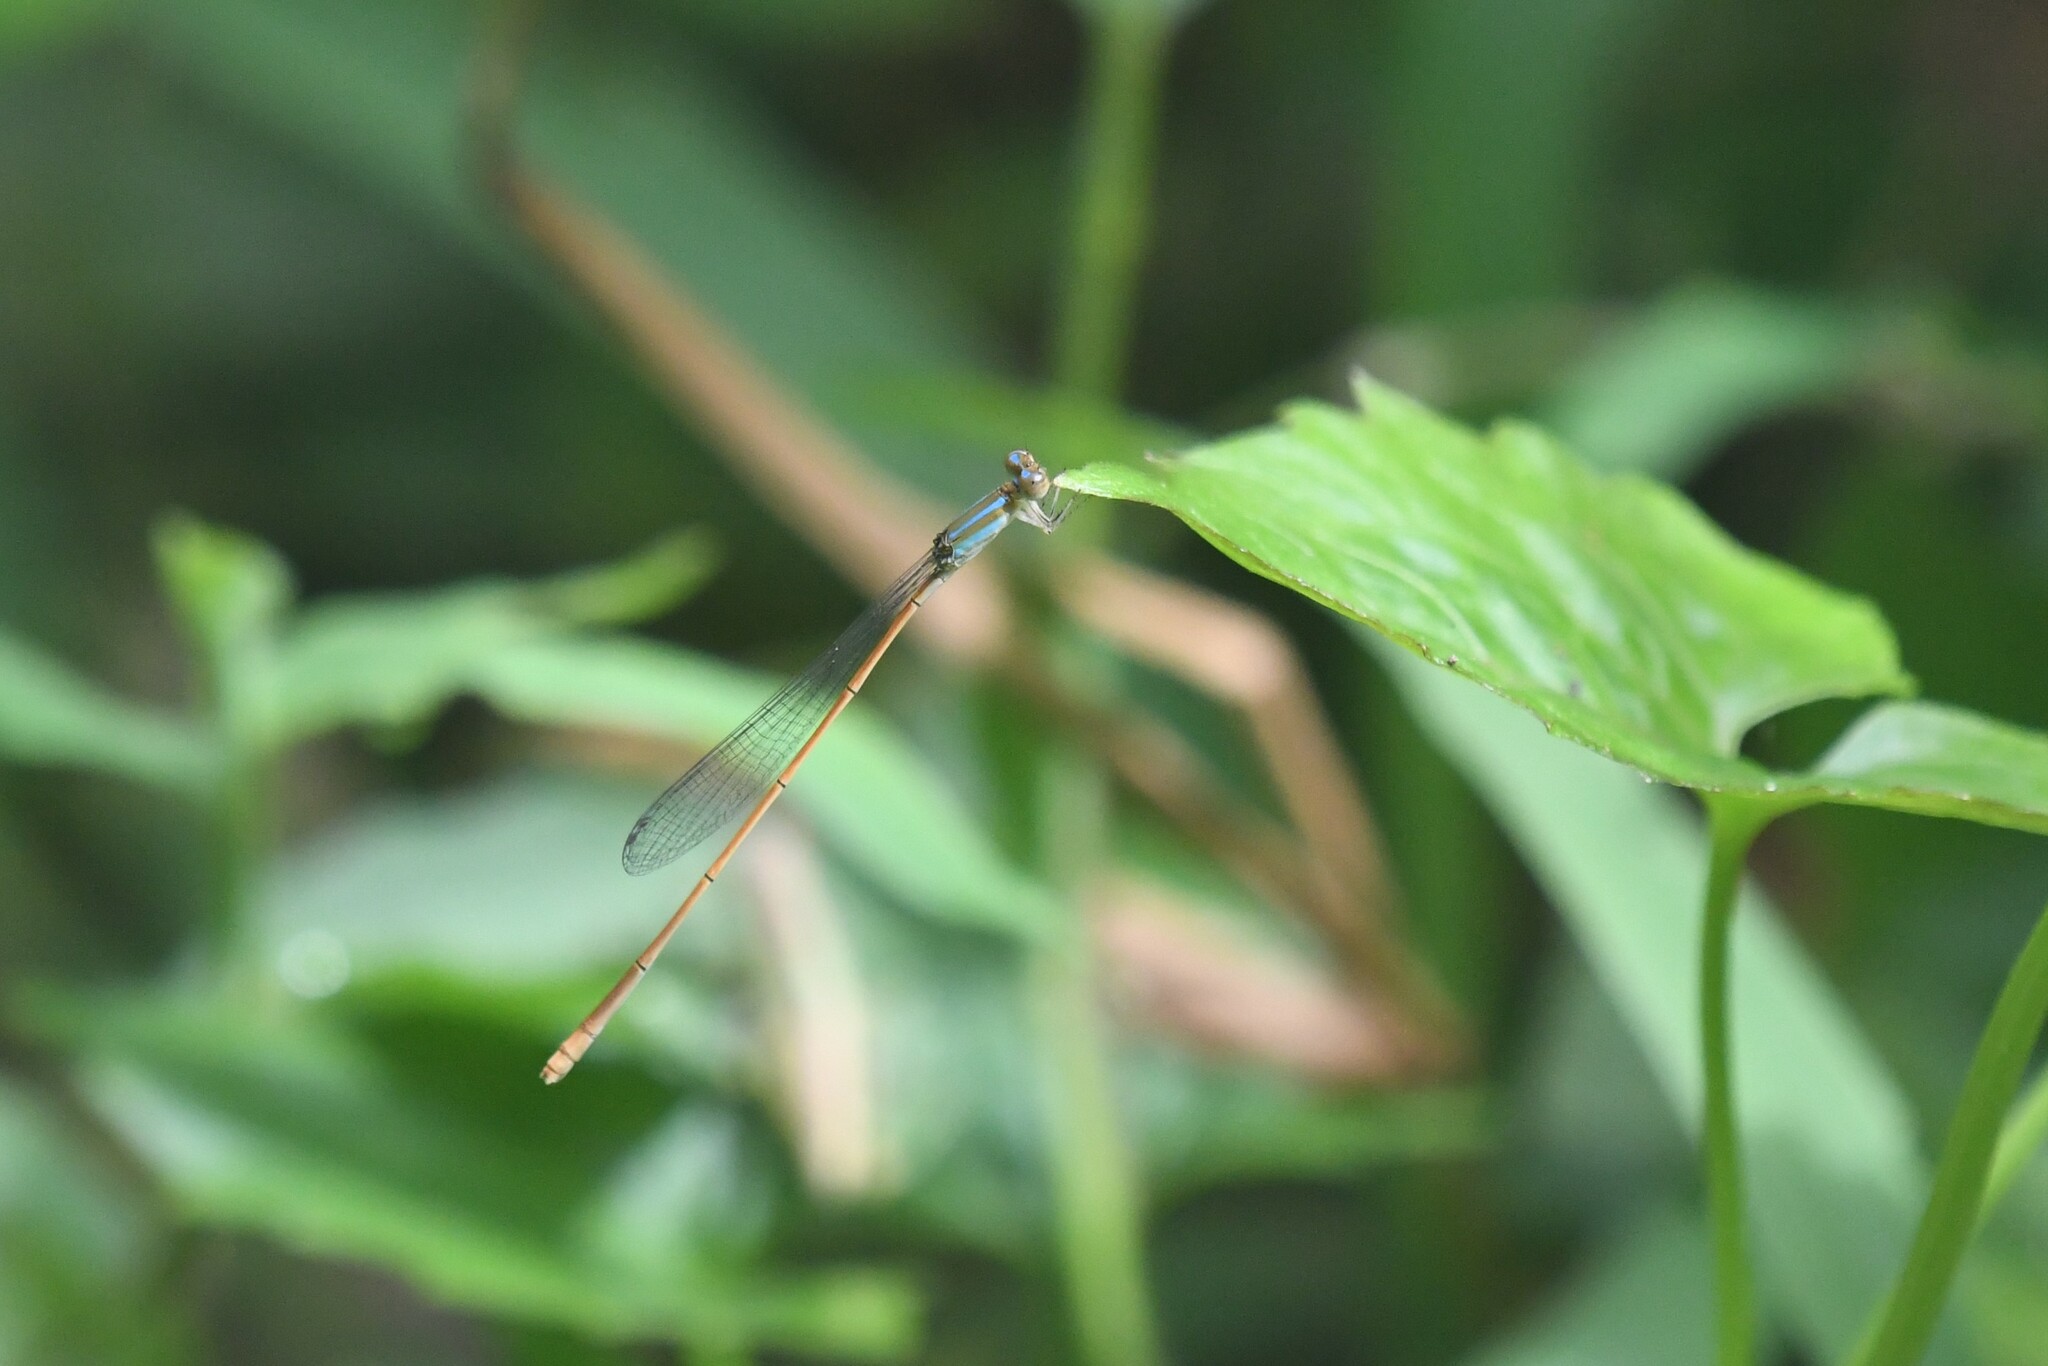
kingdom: Animalia
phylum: Arthropoda
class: Insecta
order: Odonata
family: Coenagrionidae
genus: Aciagrion
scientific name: Aciagrion pallidum
